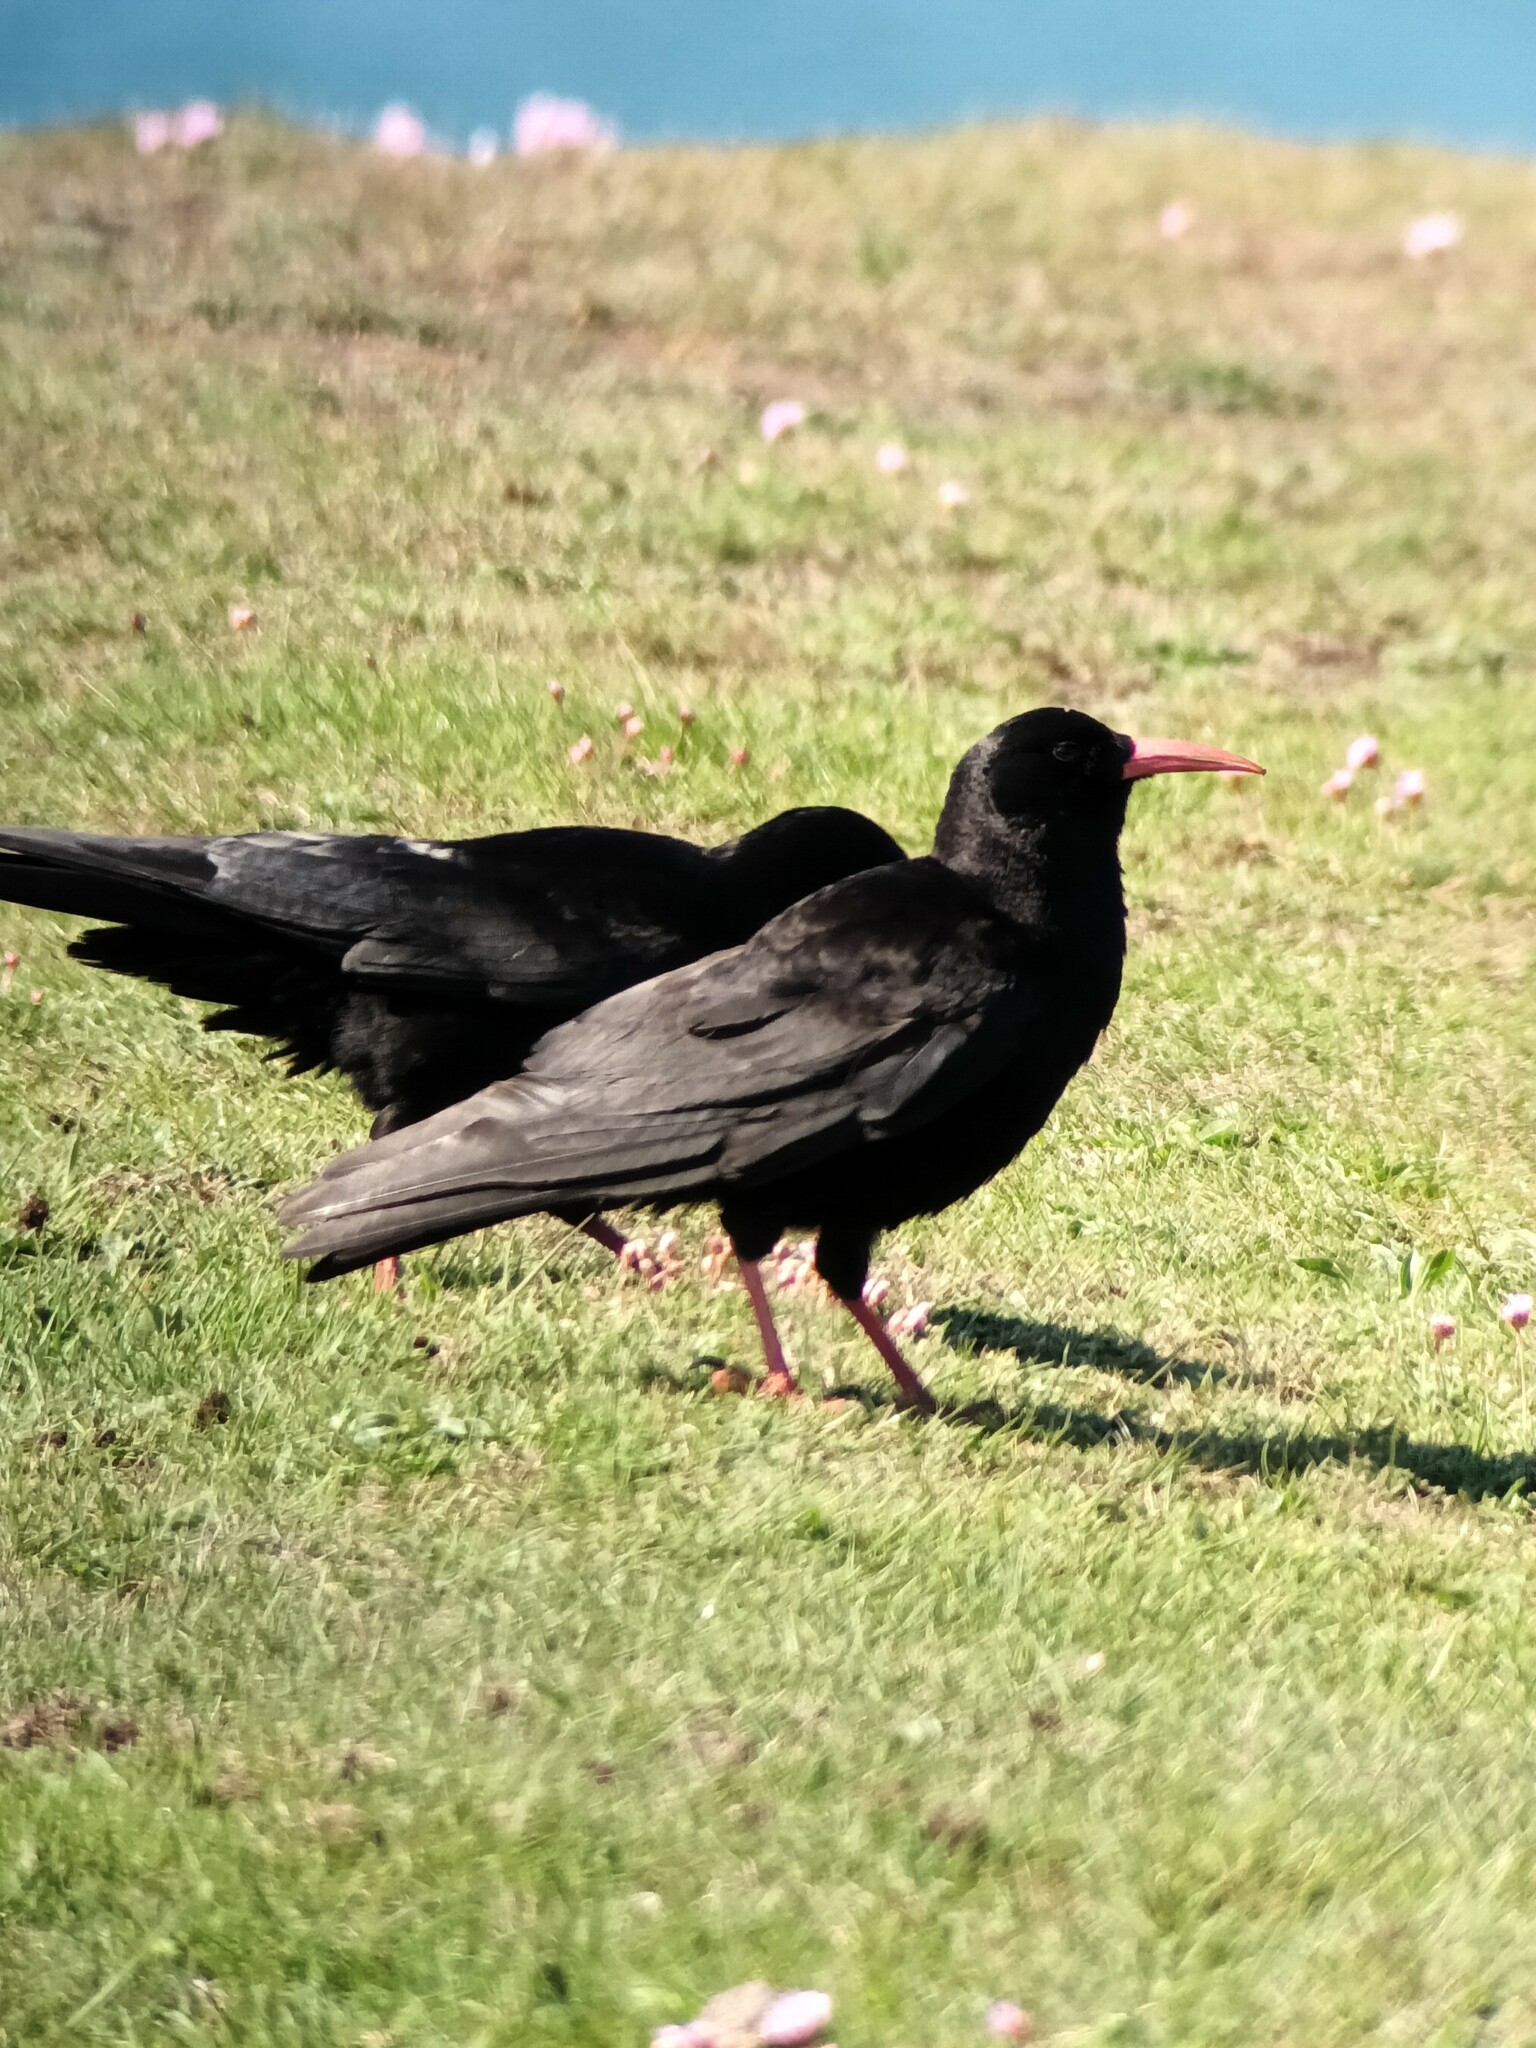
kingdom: Animalia
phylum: Chordata
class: Aves
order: Passeriformes
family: Corvidae
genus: Pyrrhocorax
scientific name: Pyrrhocorax pyrrhocorax
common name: Red-billed chough
